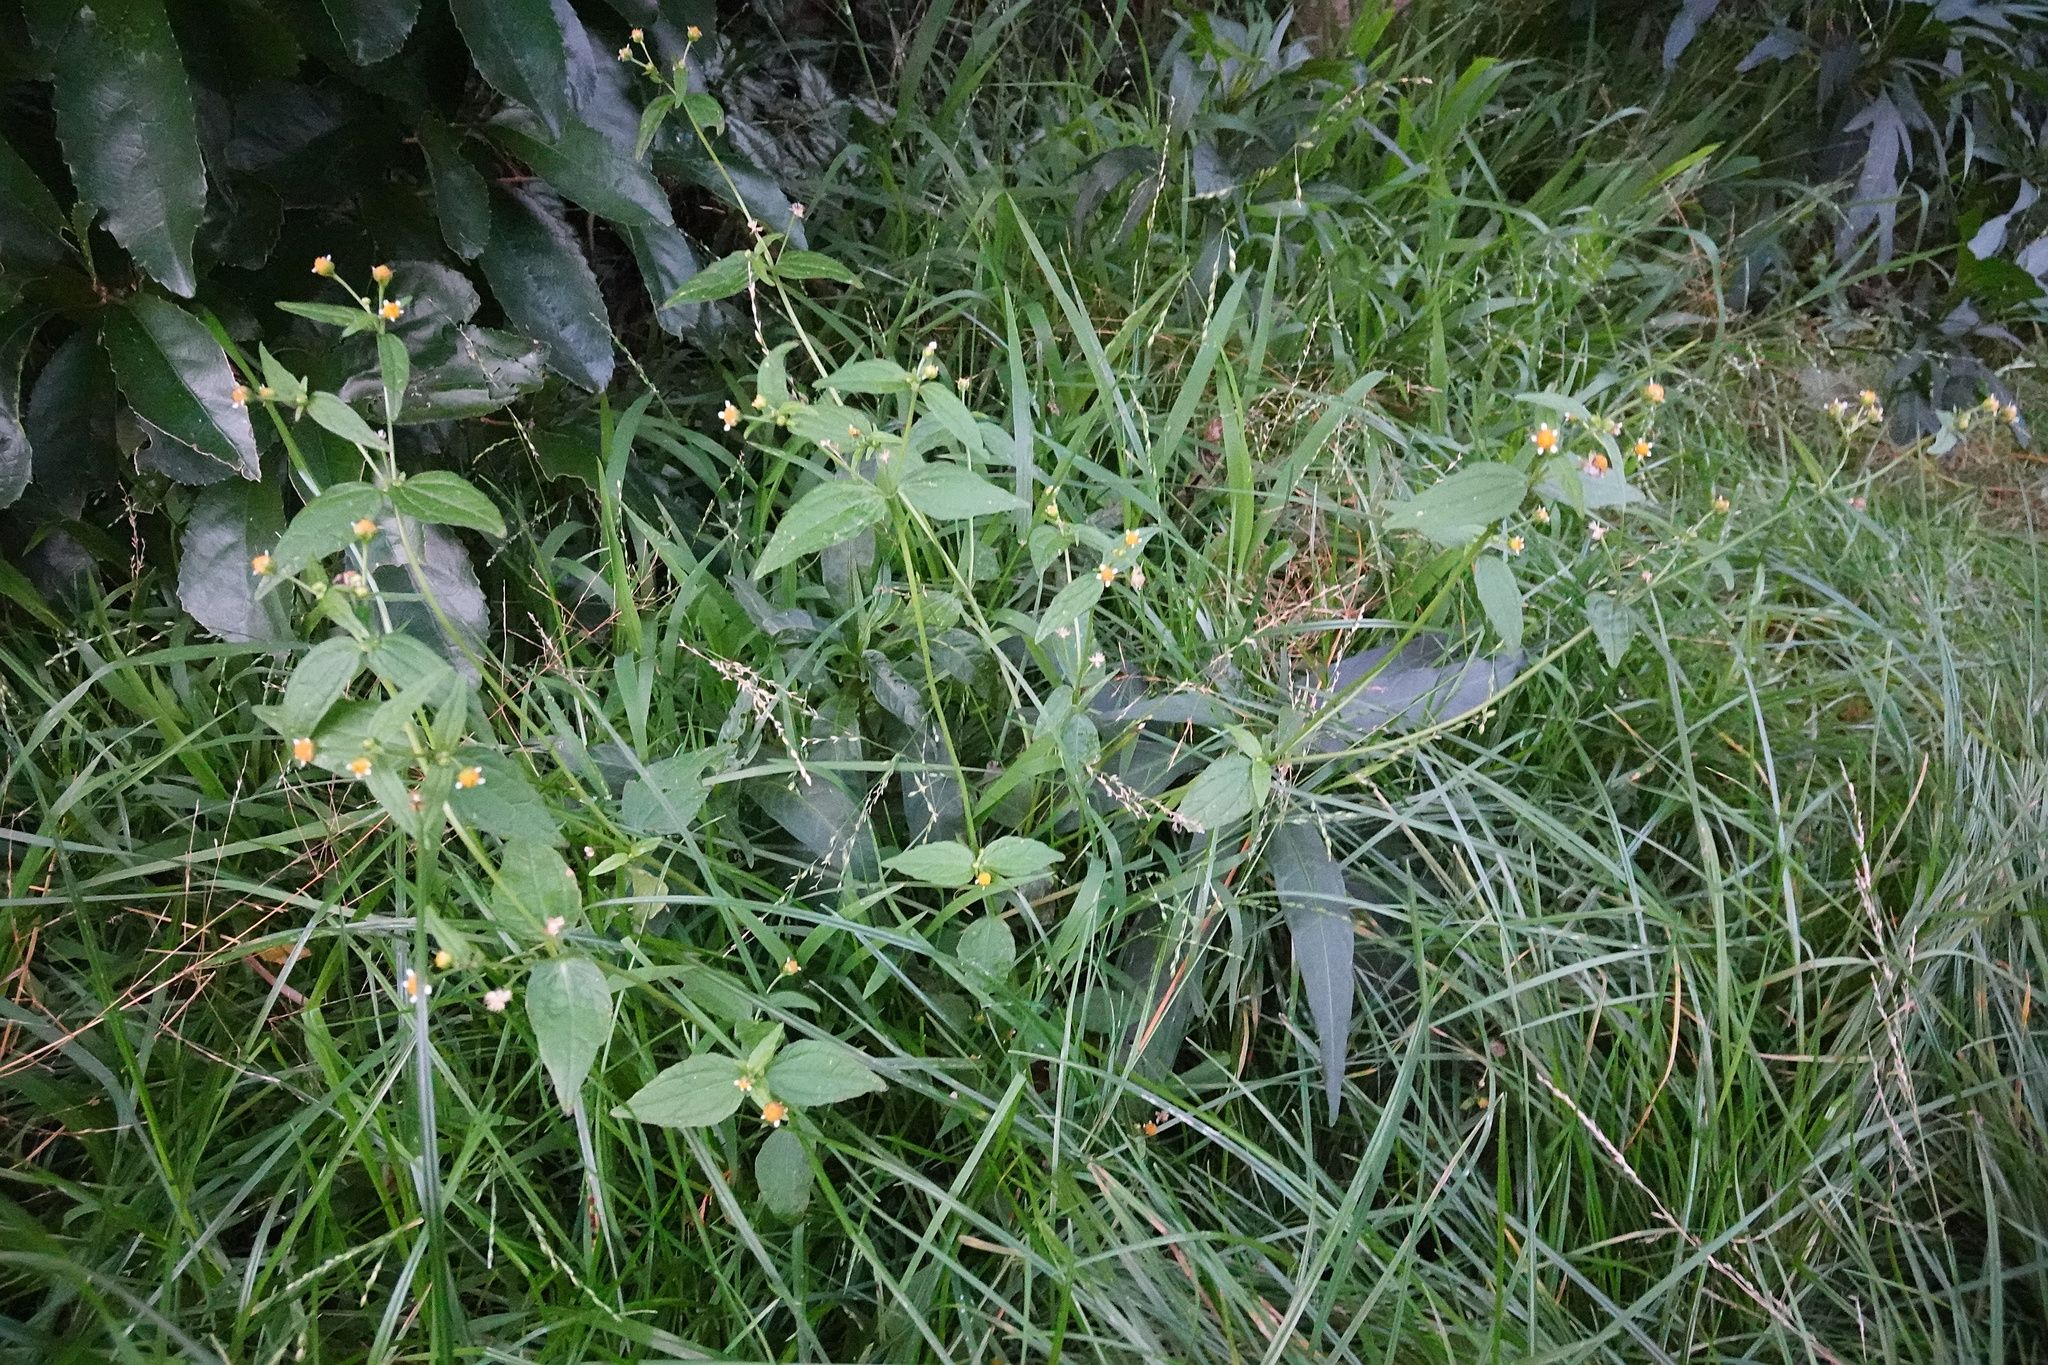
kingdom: Plantae
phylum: Tracheophyta
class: Magnoliopsida
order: Asterales
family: Asteraceae
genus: Galinsoga
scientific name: Galinsoga parviflora
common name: Gallant soldier
